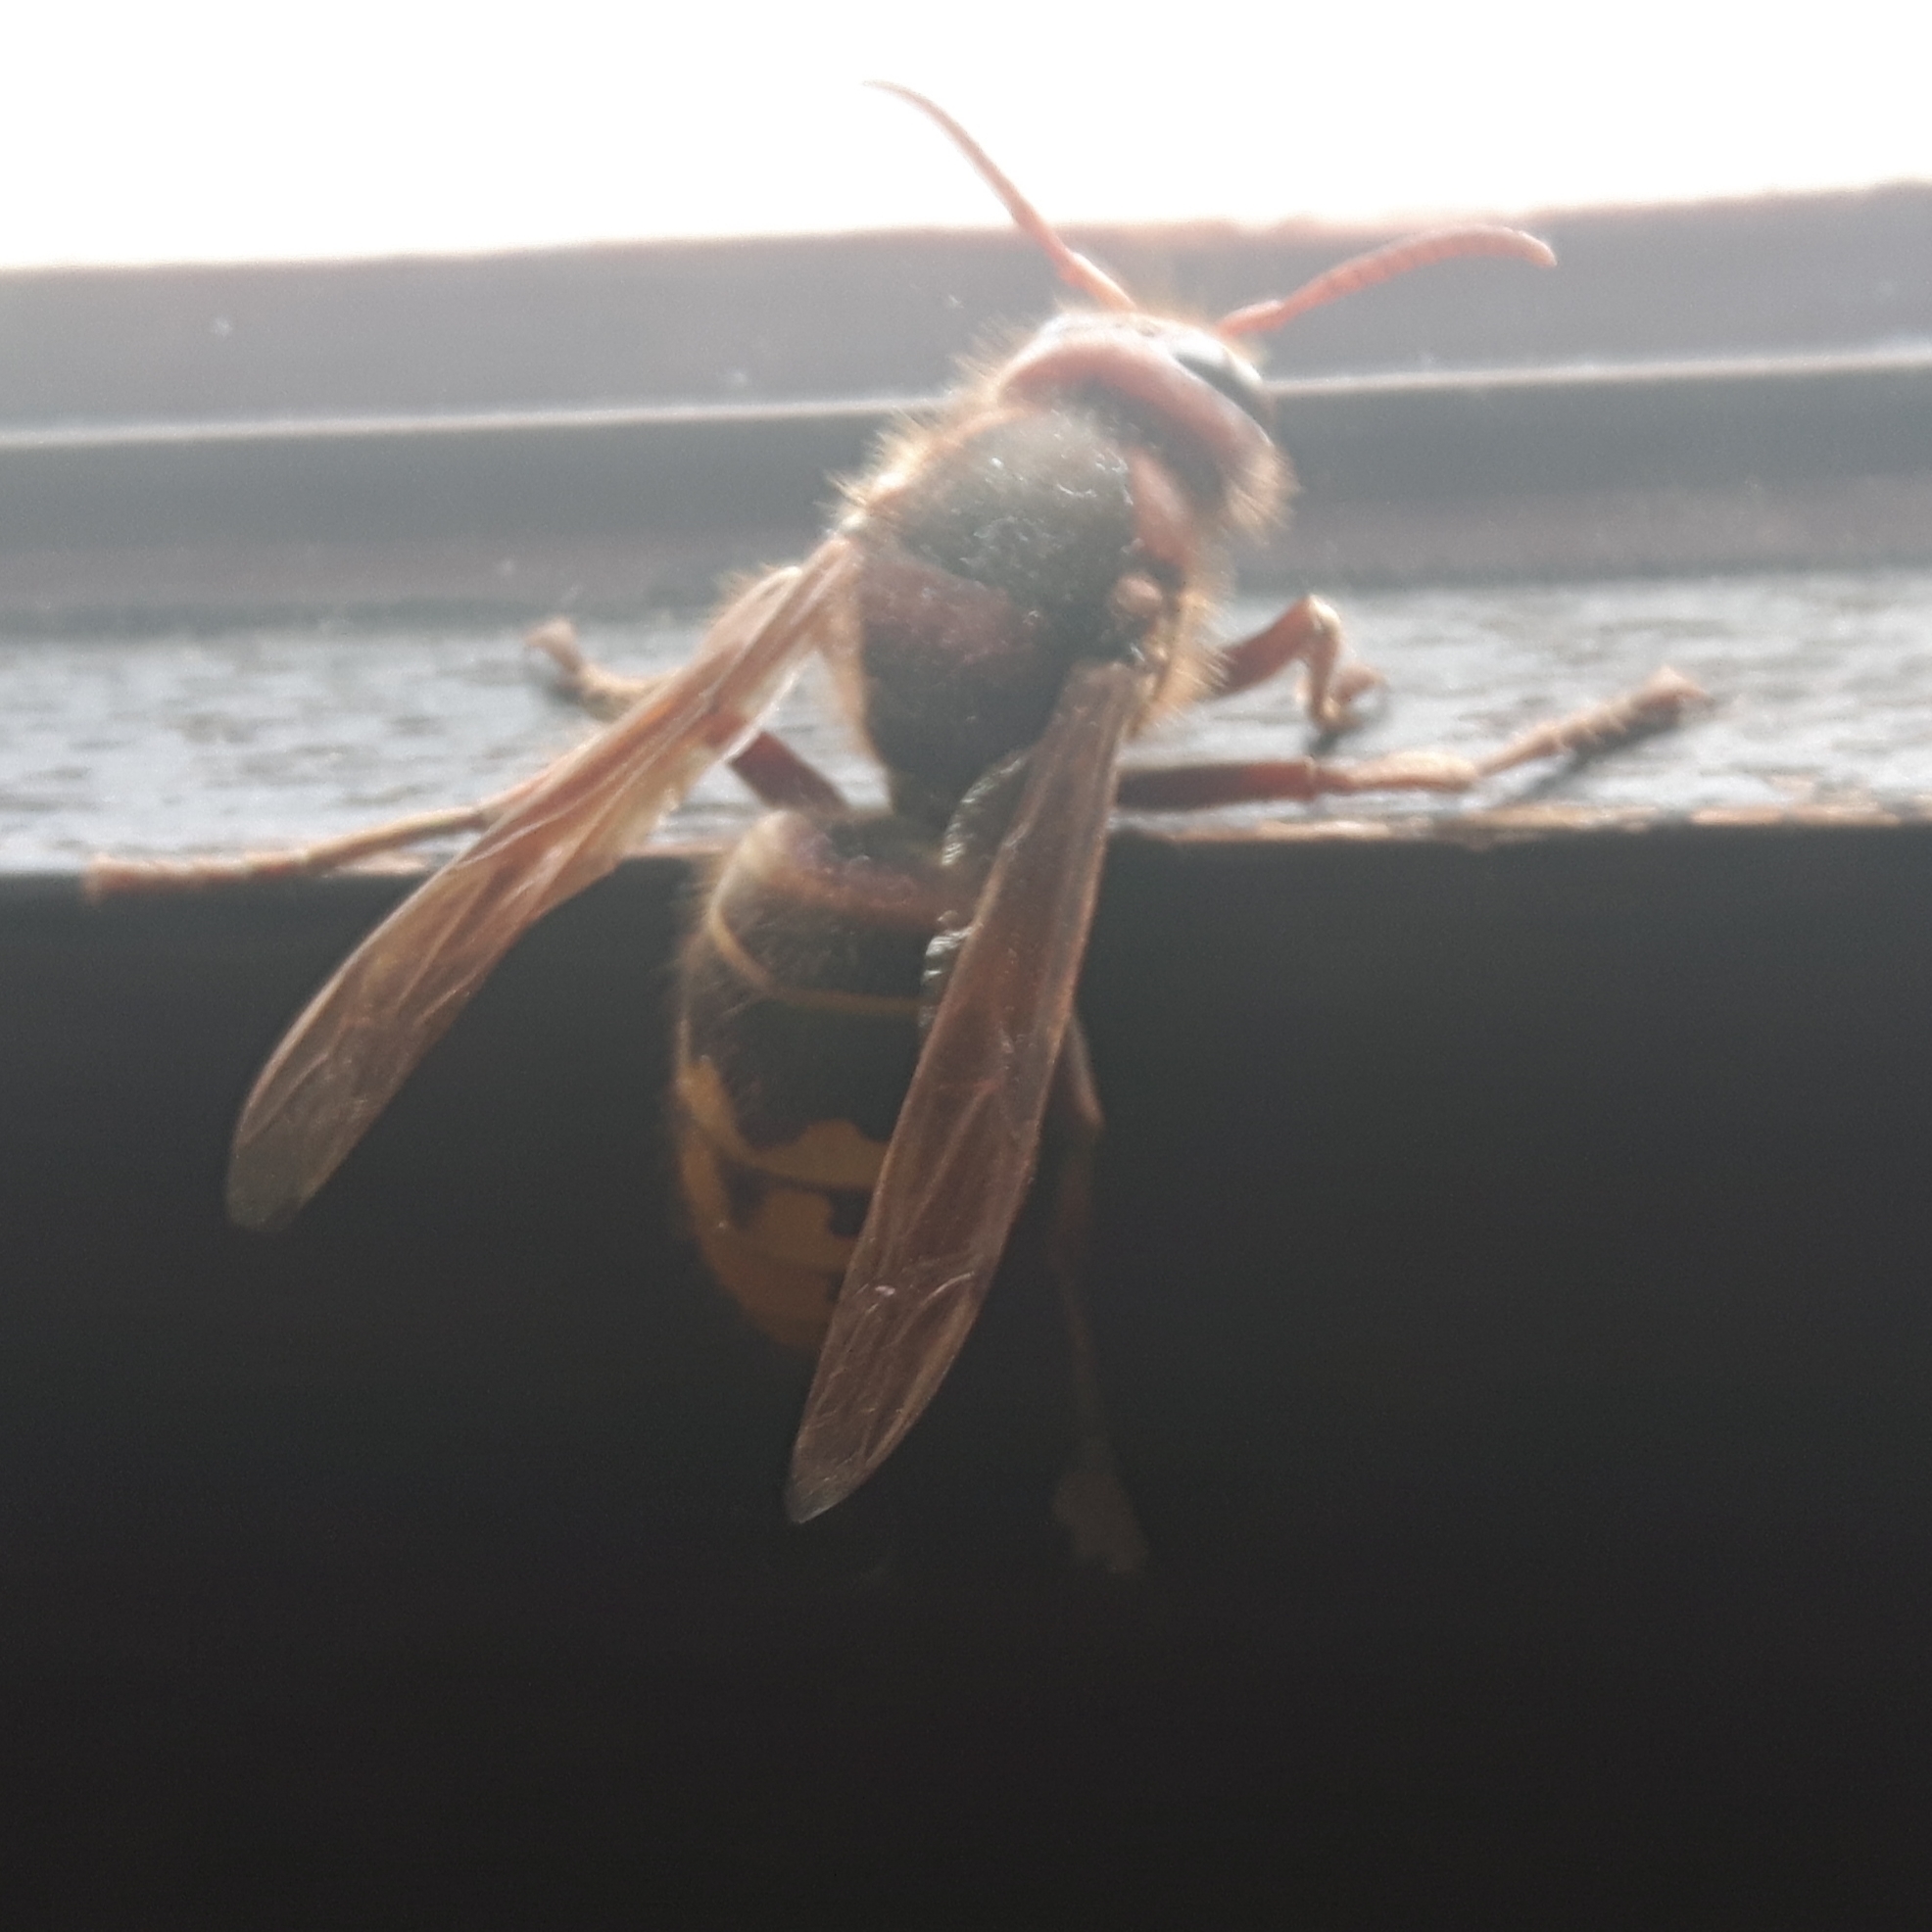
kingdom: Animalia
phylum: Arthropoda
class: Insecta
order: Hymenoptera
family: Vespidae
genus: Vespa
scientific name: Vespa crabro
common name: Hornet
